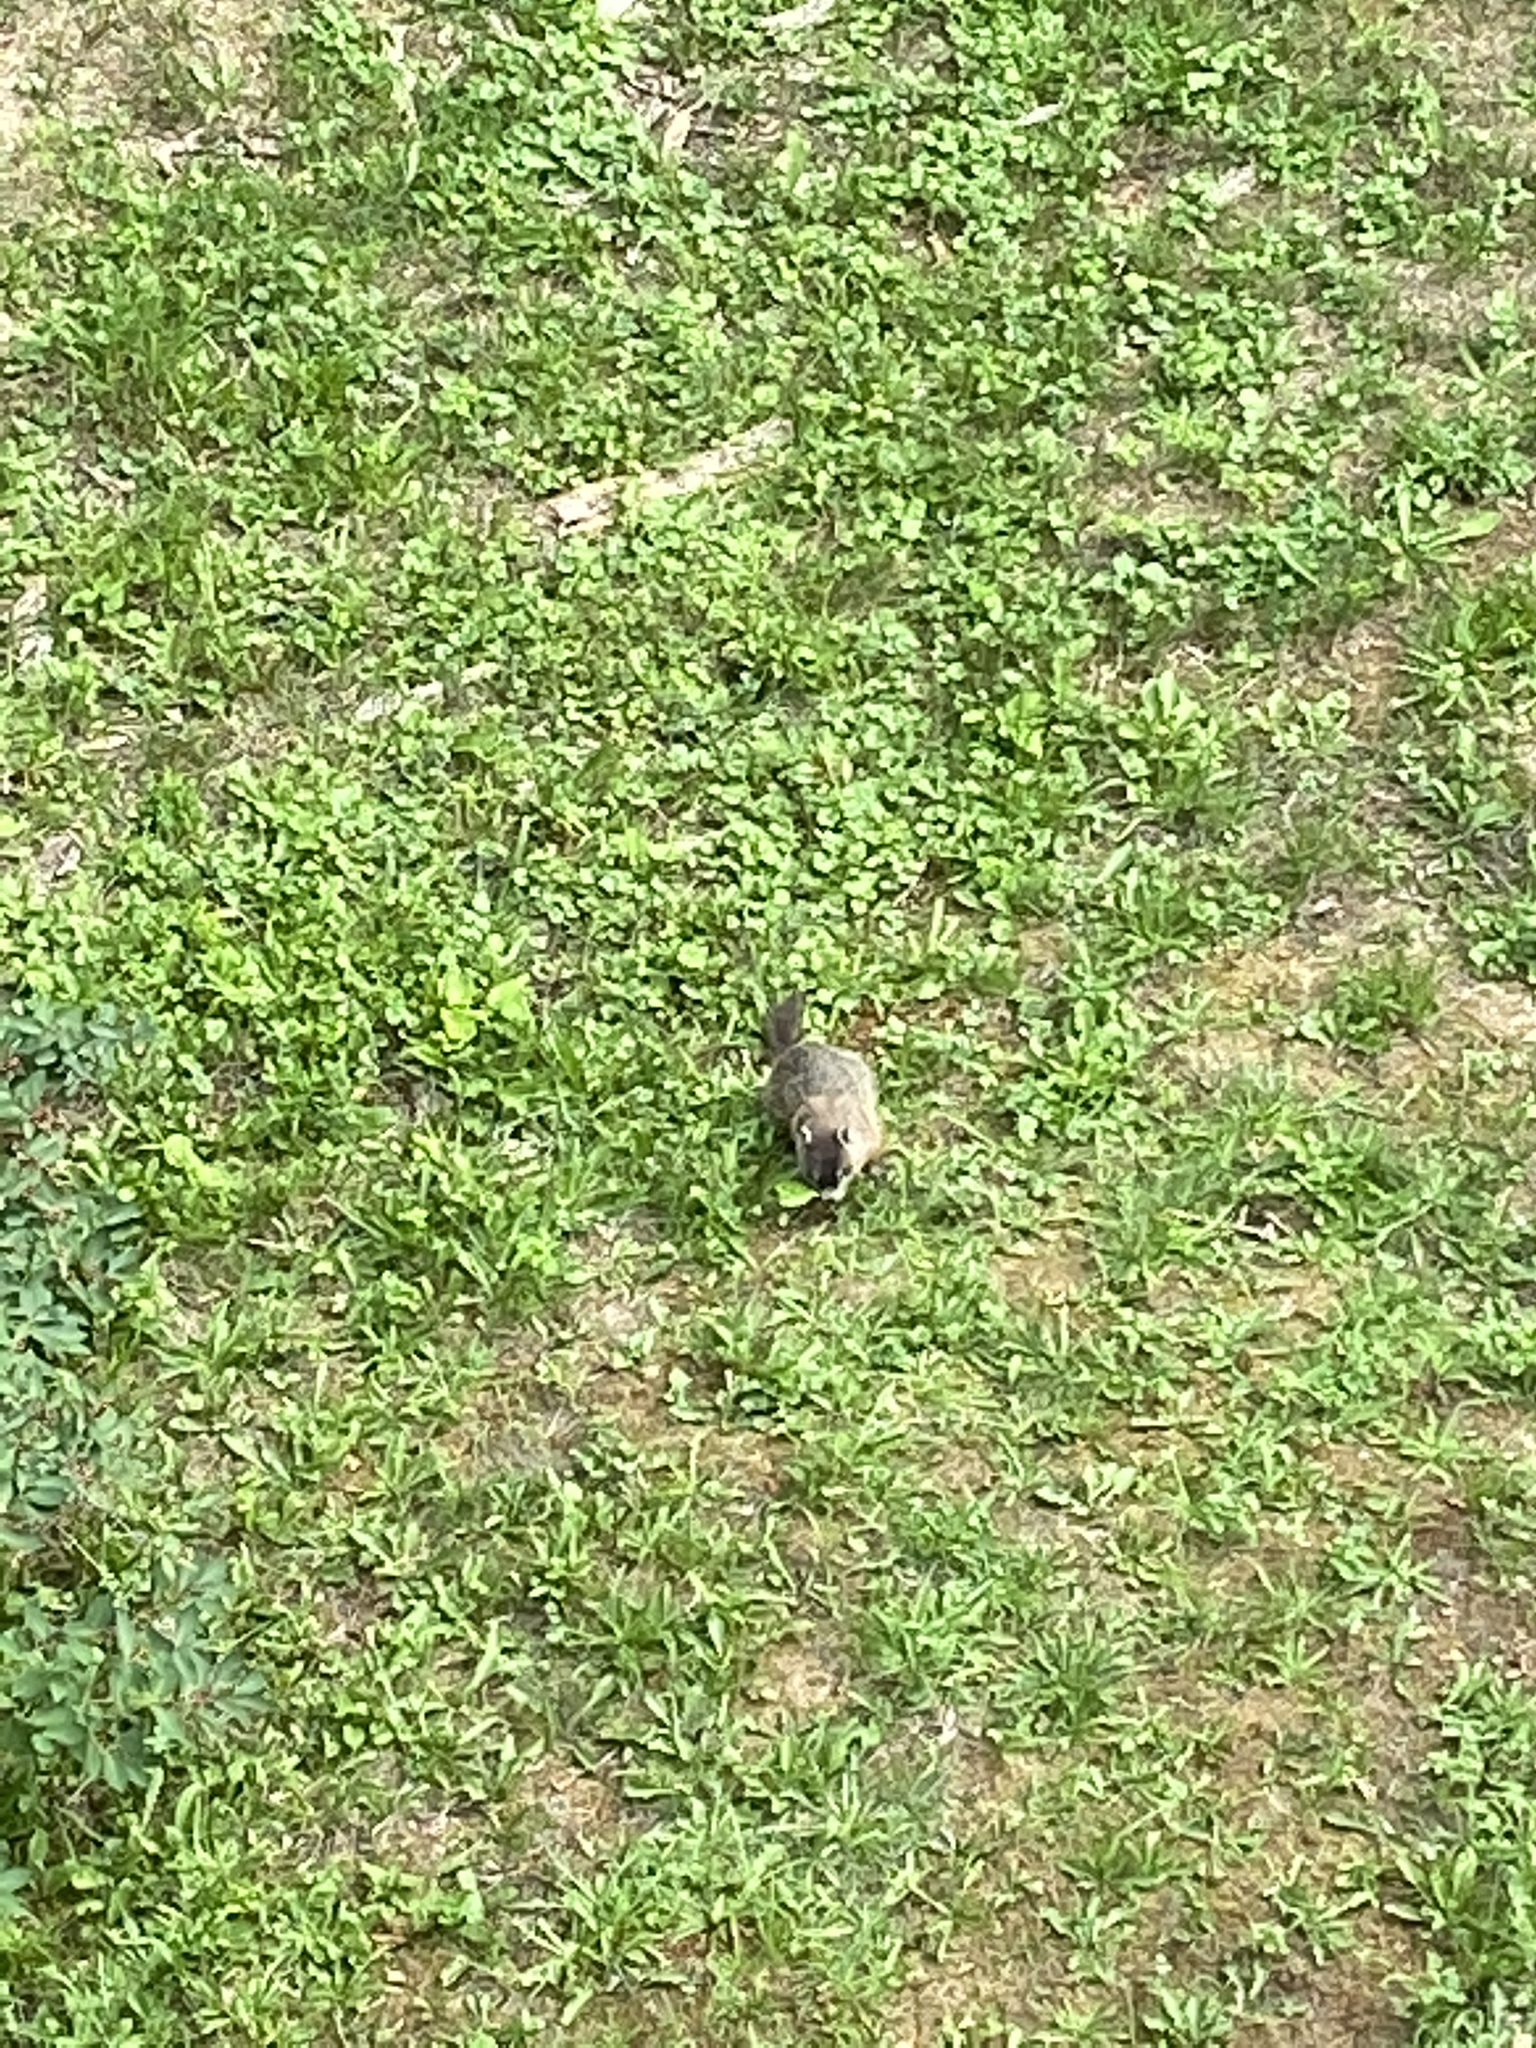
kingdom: Animalia
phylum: Chordata
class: Mammalia
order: Rodentia
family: Sciuridae
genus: Marmota
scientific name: Marmota monax
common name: Groundhog
